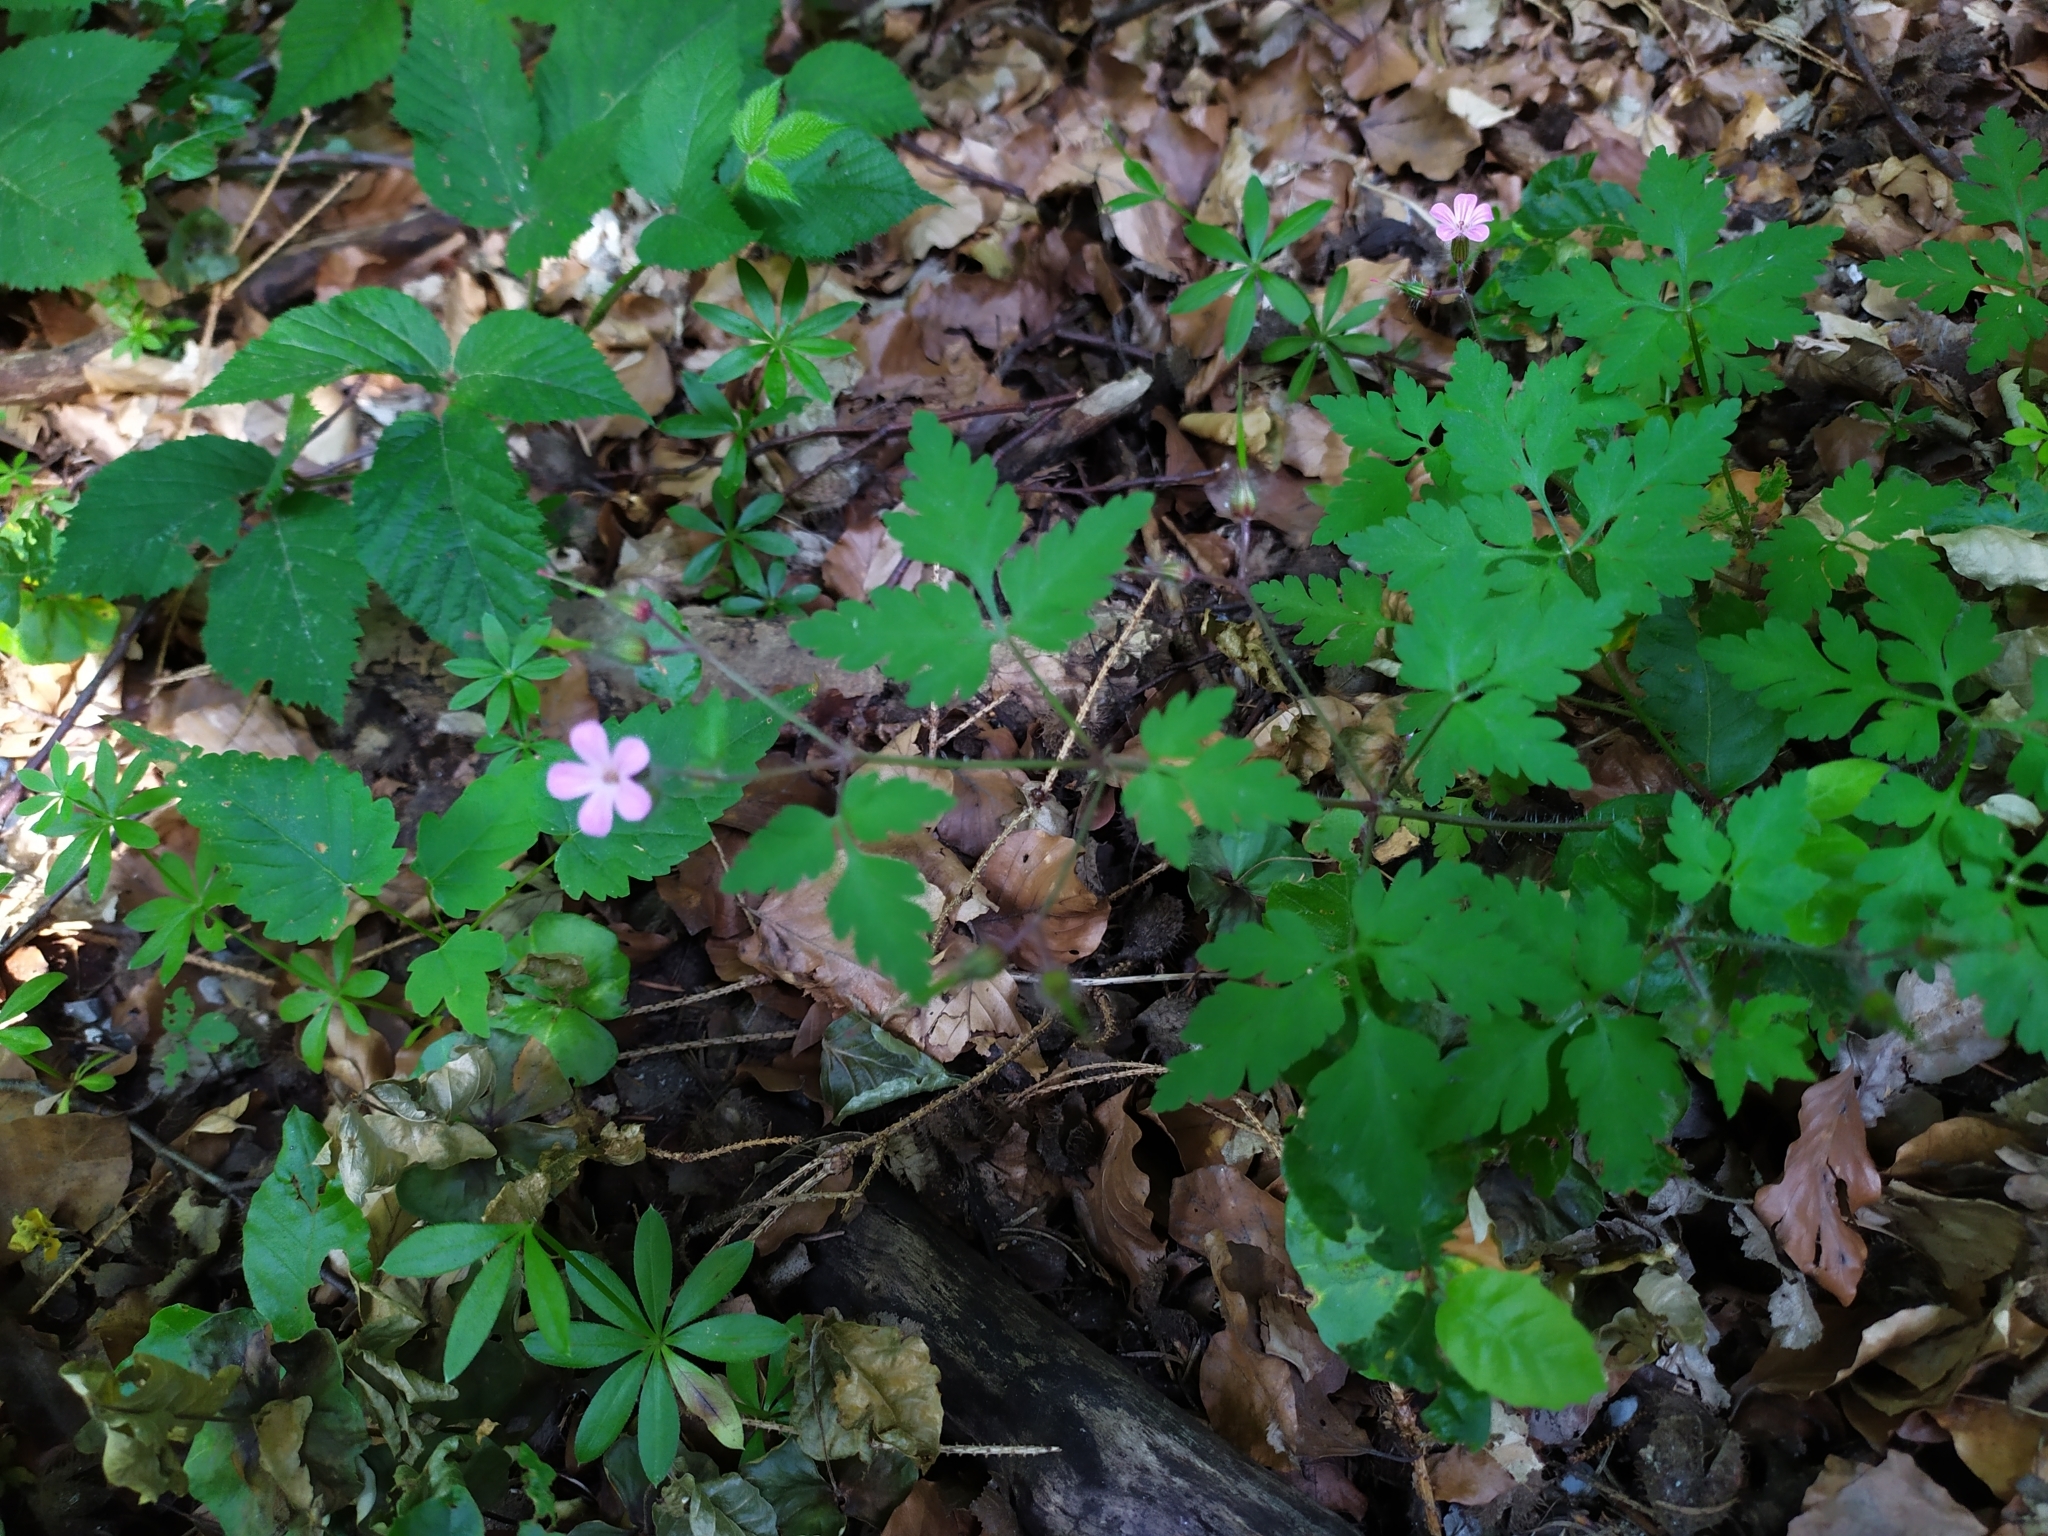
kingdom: Plantae
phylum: Tracheophyta
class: Magnoliopsida
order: Geraniales
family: Geraniaceae
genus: Geranium
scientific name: Geranium robertianum
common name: Herb-robert
